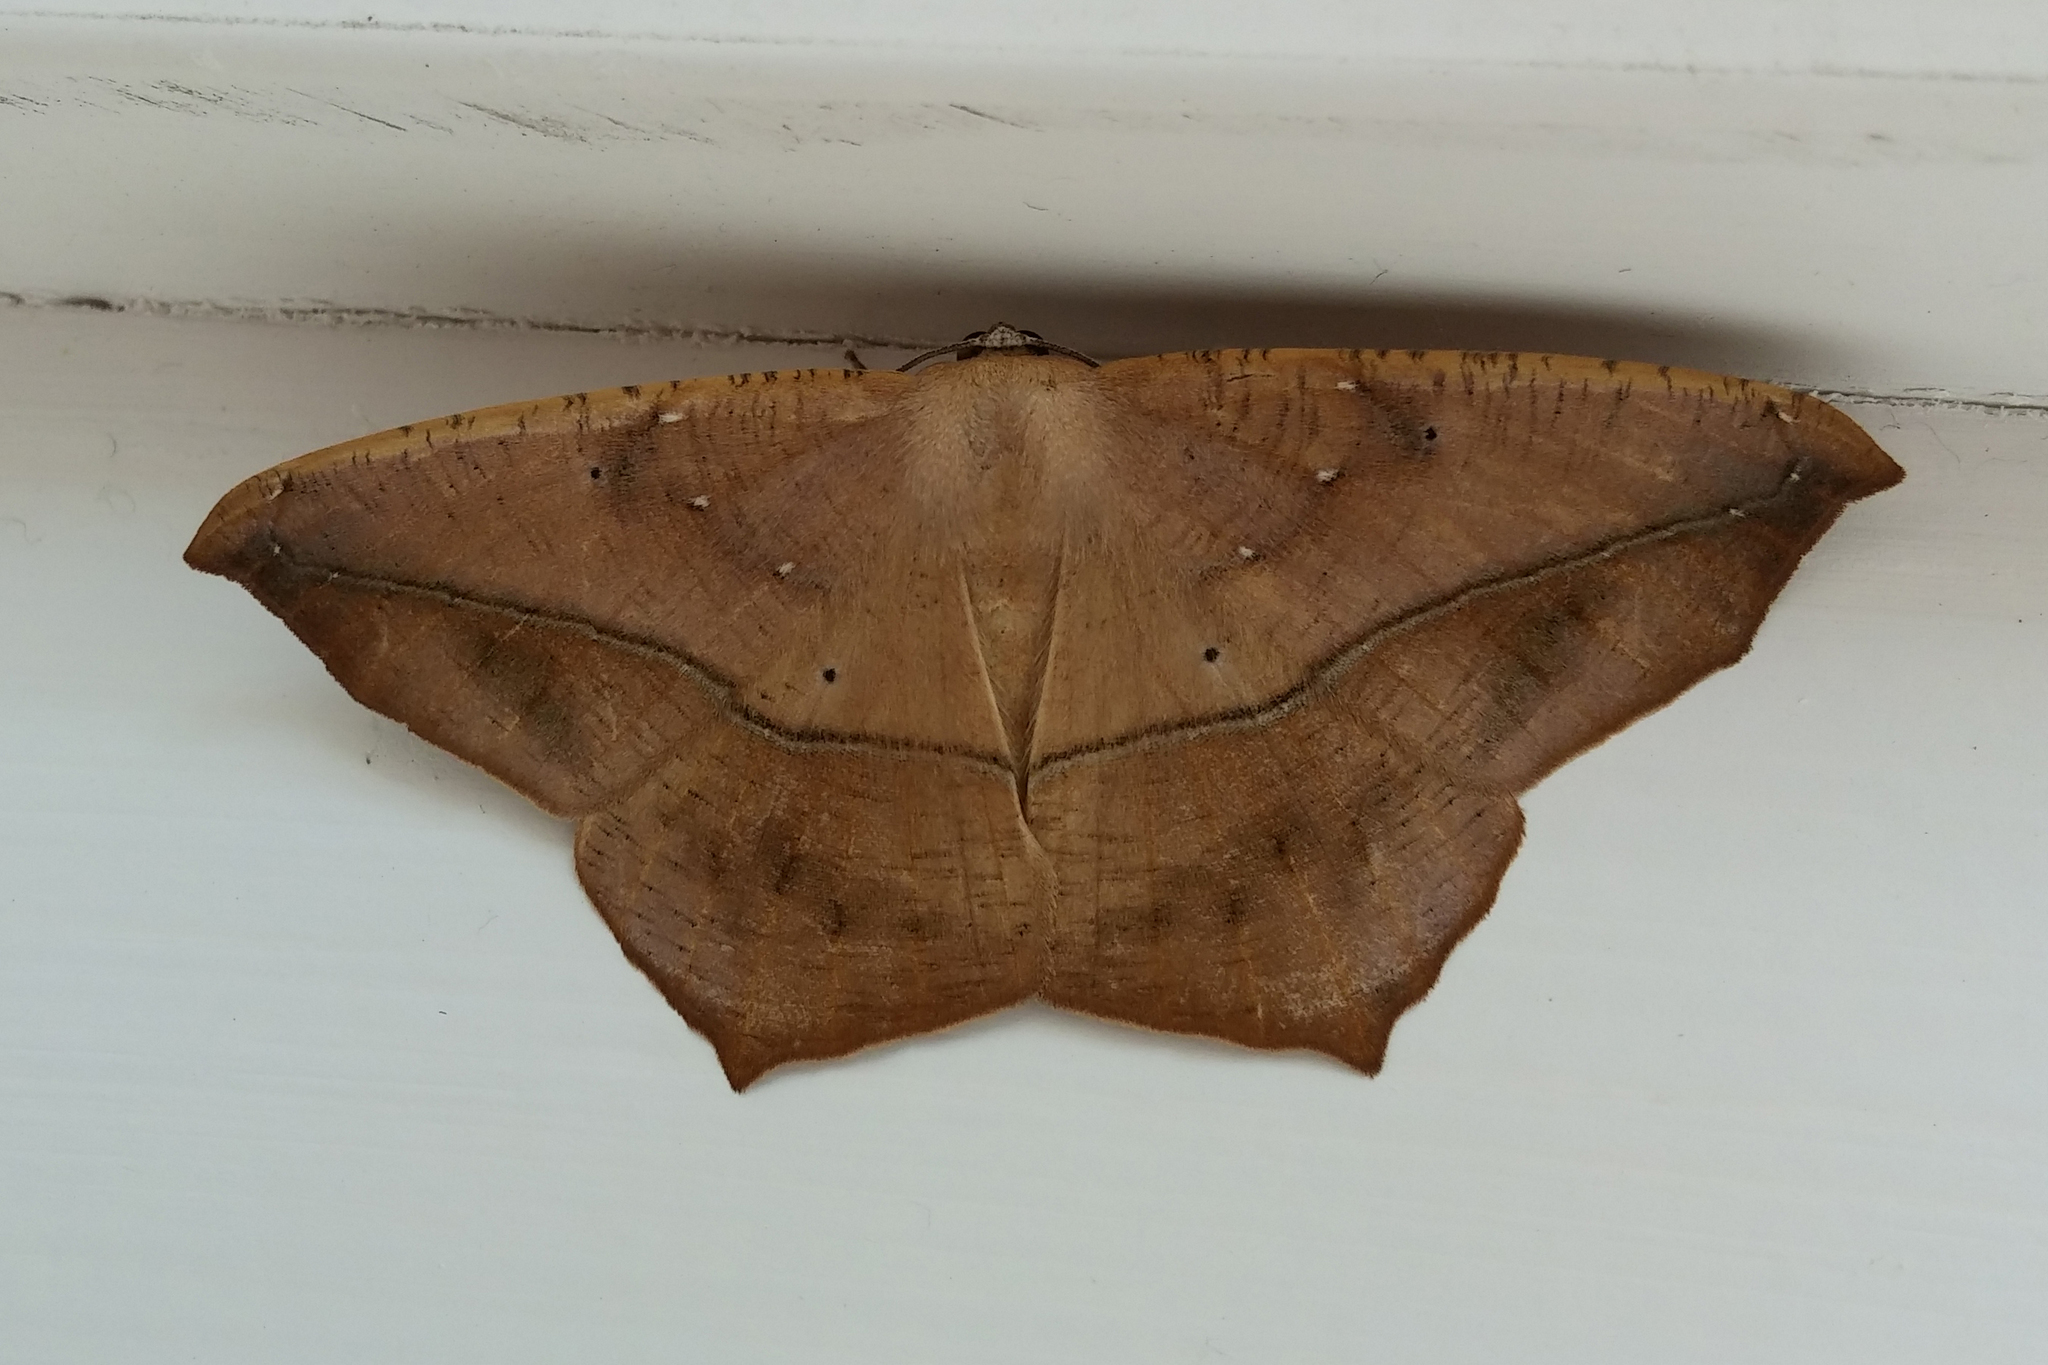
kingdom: Animalia
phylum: Arthropoda
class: Insecta
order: Lepidoptera
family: Geometridae
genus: Prochoerodes
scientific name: Prochoerodes lineola
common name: Large maple spanworm
